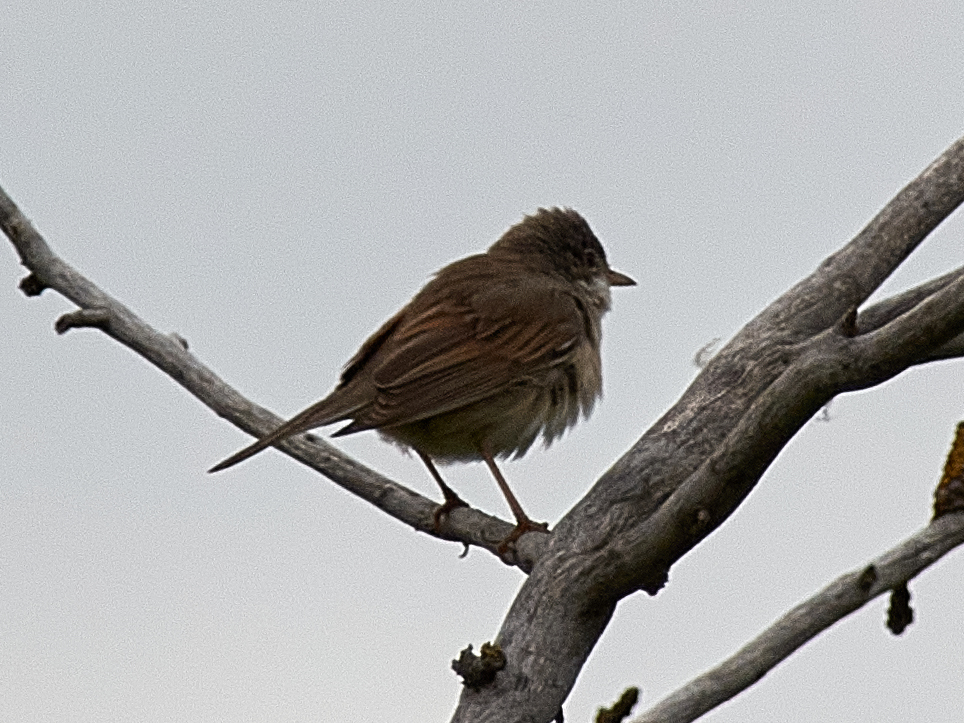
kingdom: Animalia
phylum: Chordata
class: Aves
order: Passeriformes
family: Sylviidae
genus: Sylvia
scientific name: Sylvia communis
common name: Common whitethroat
